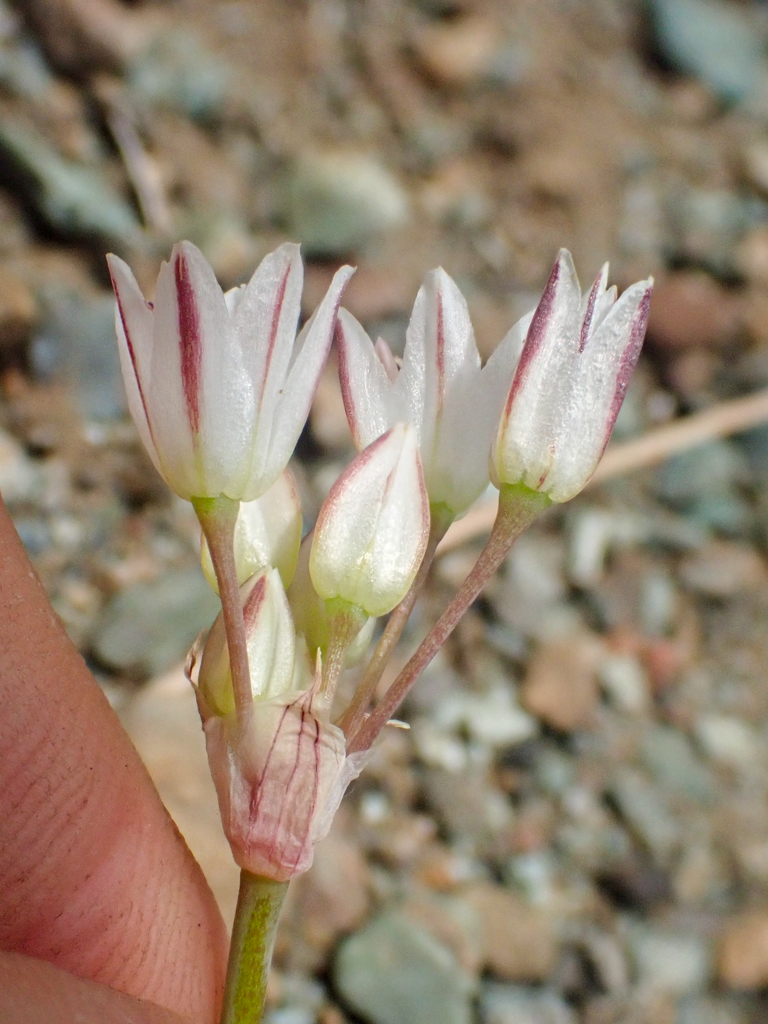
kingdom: Plantae
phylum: Tracheophyta
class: Liliopsida
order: Asparagales
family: Amaryllidaceae
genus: Allium
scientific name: Allium diabolense
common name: Serpentine onion
